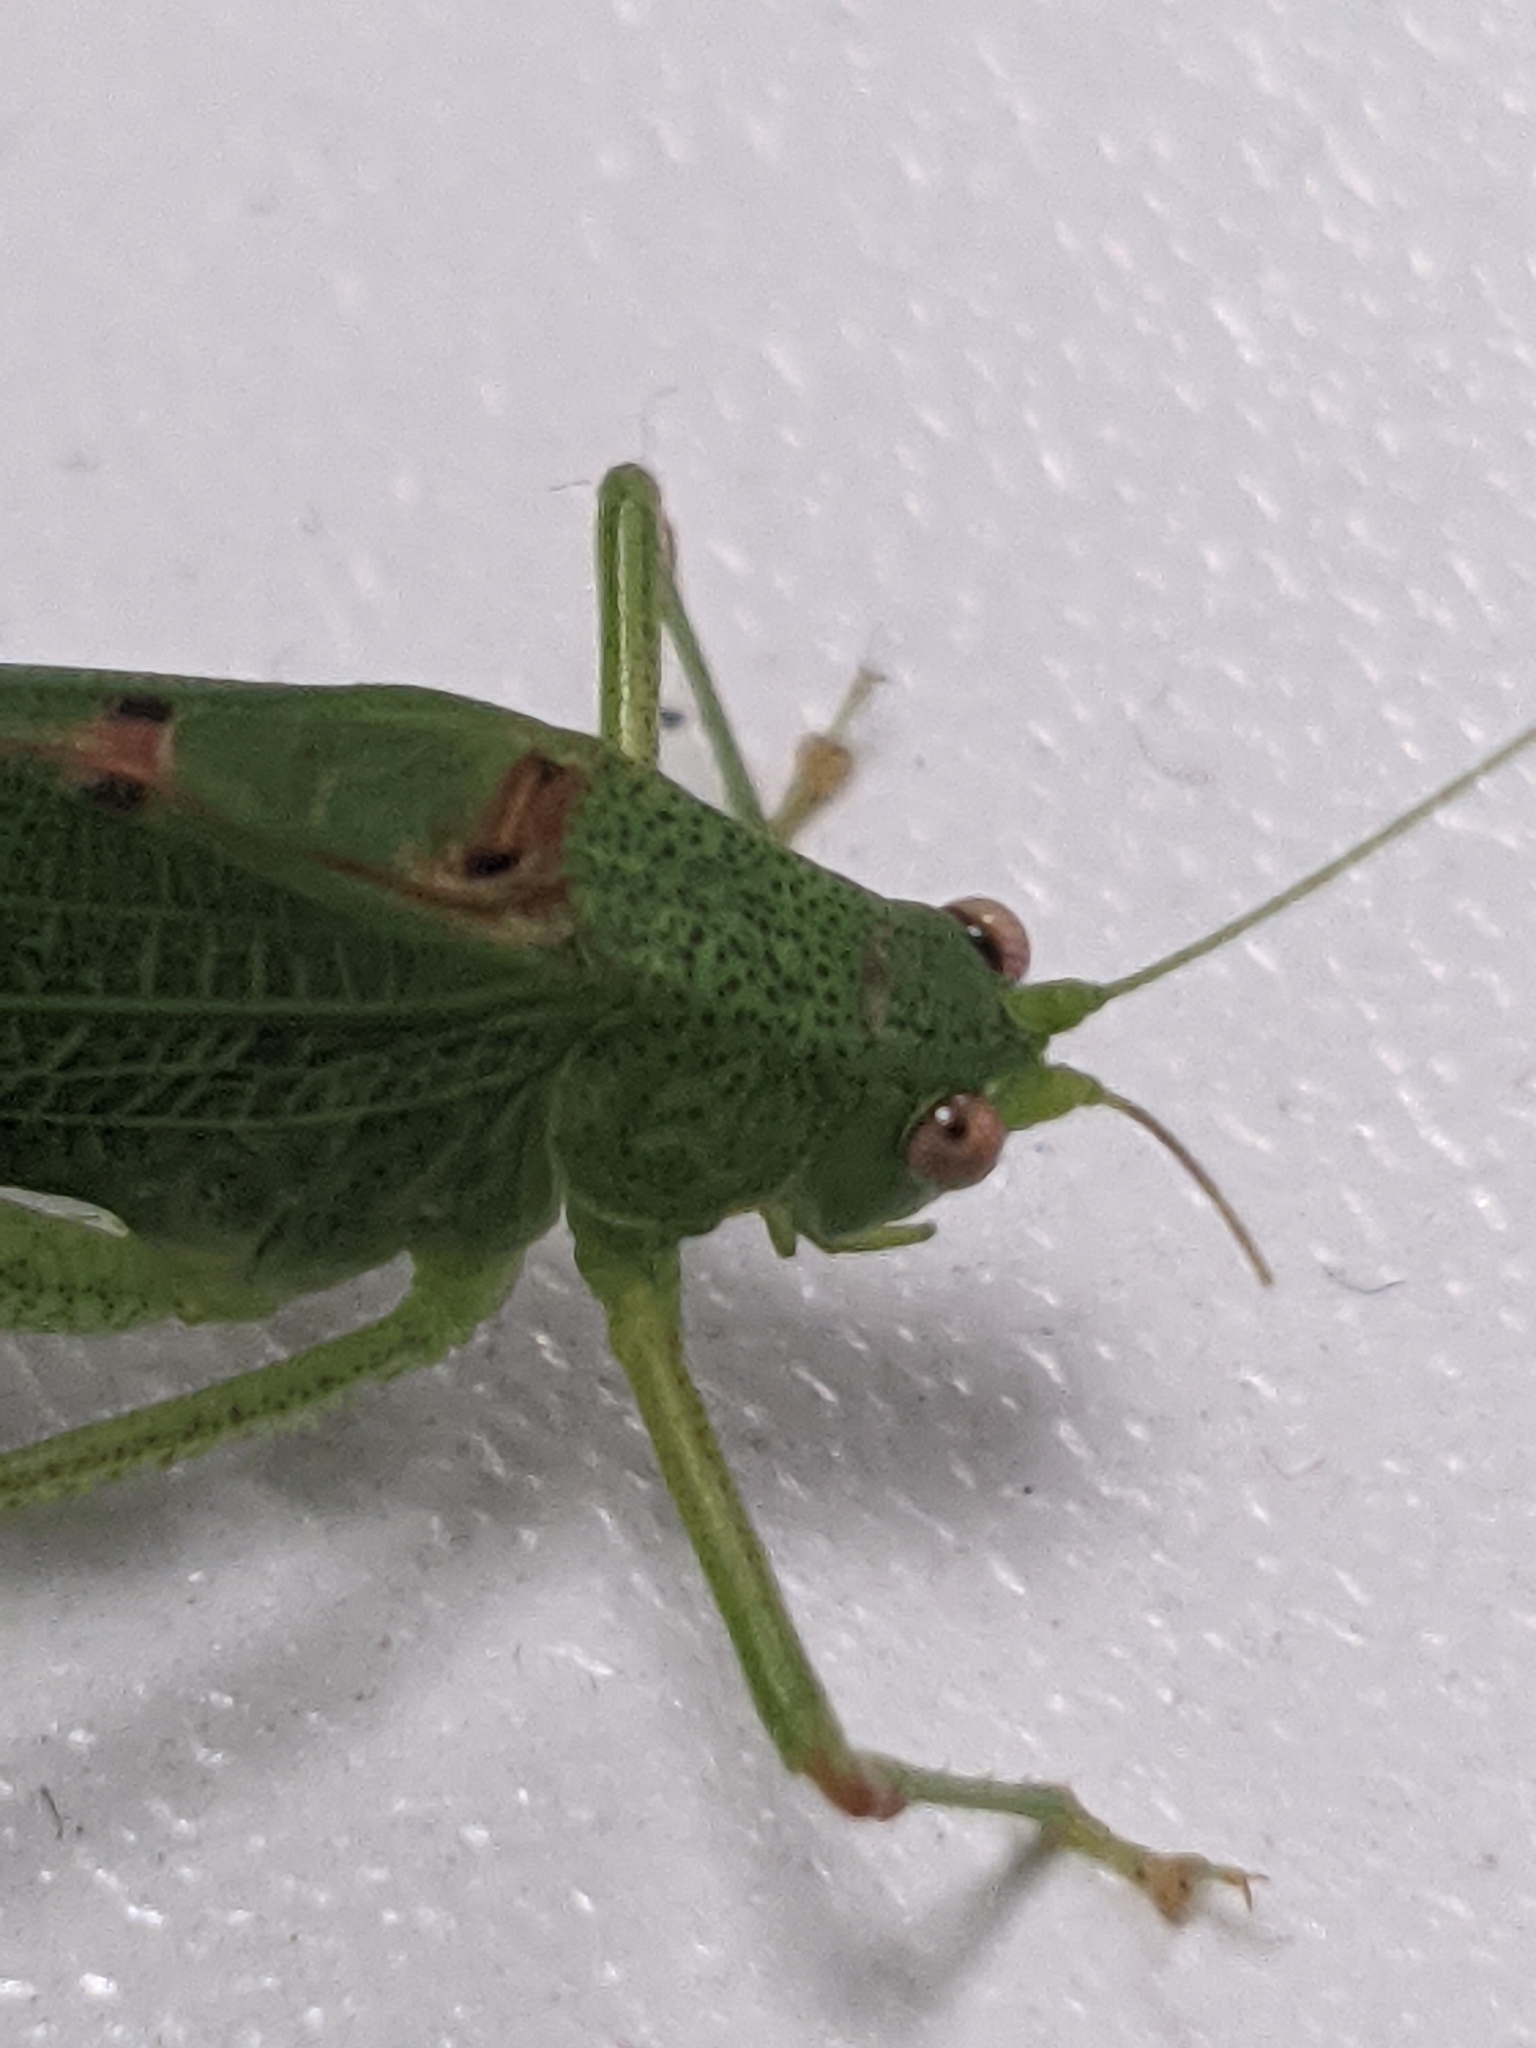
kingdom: Animalia
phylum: Arthropoda
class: Insecta
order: Orthoptera
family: Tettigoniidae
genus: Phaneroptera
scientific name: Phaneroptera nana
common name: Southern sickle bush-cricket
